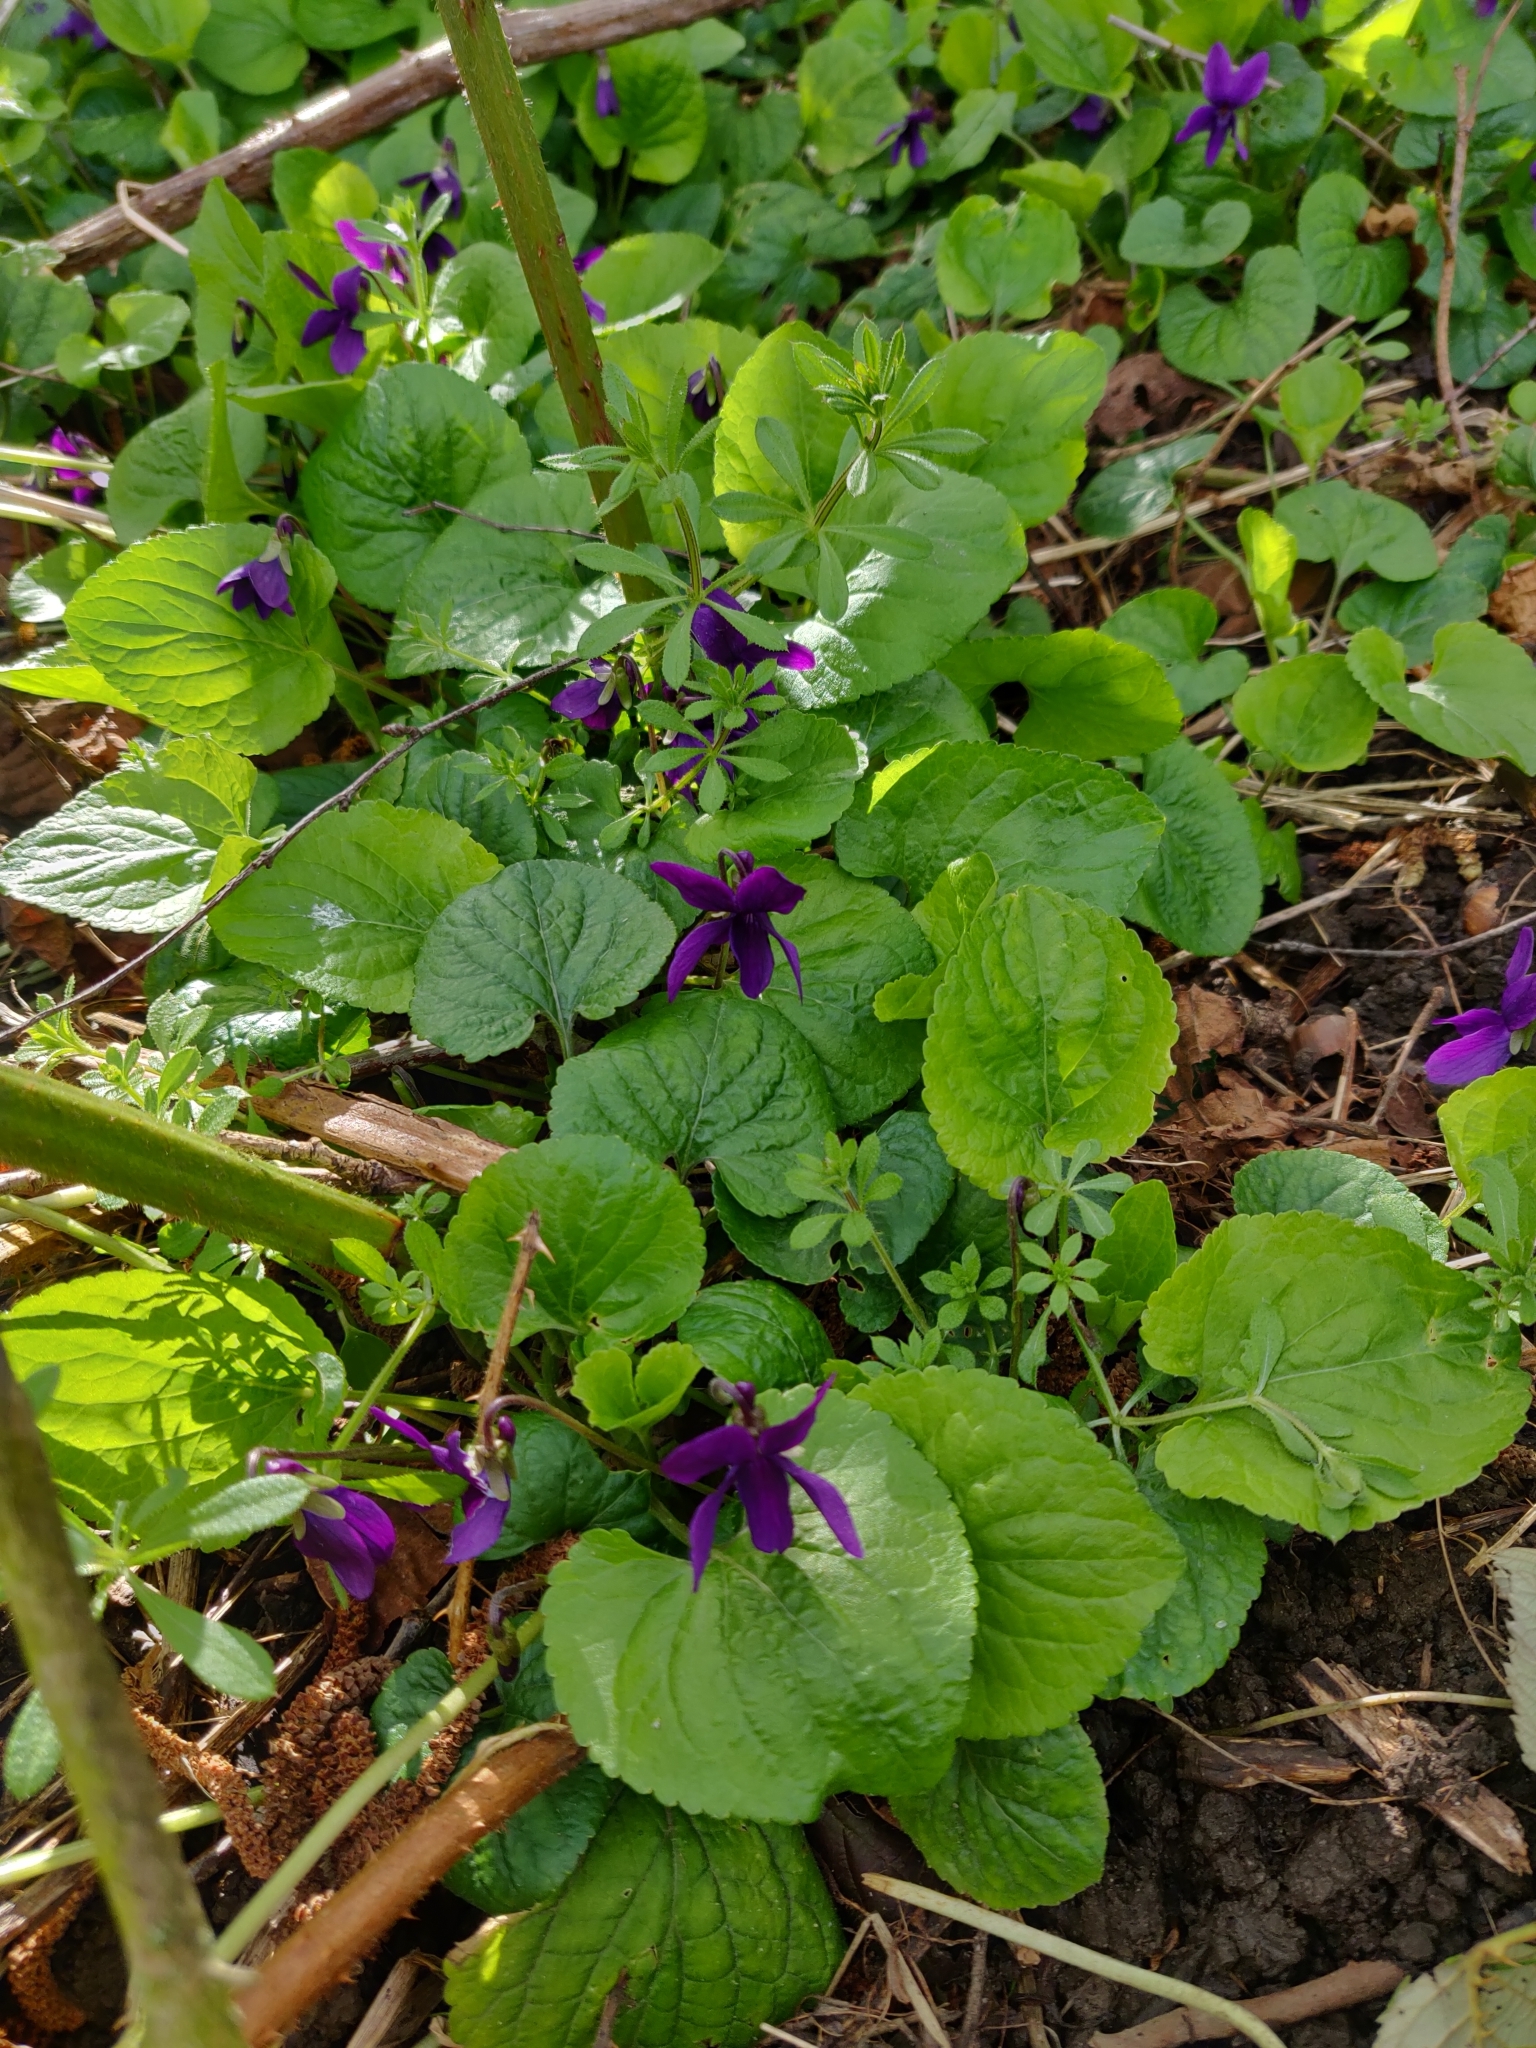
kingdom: Plantae
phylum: Tracheophyta
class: Magnoliopsida
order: Malpighiales
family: Violaceae
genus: Viola
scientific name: Viola odorata
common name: Sweet violet
